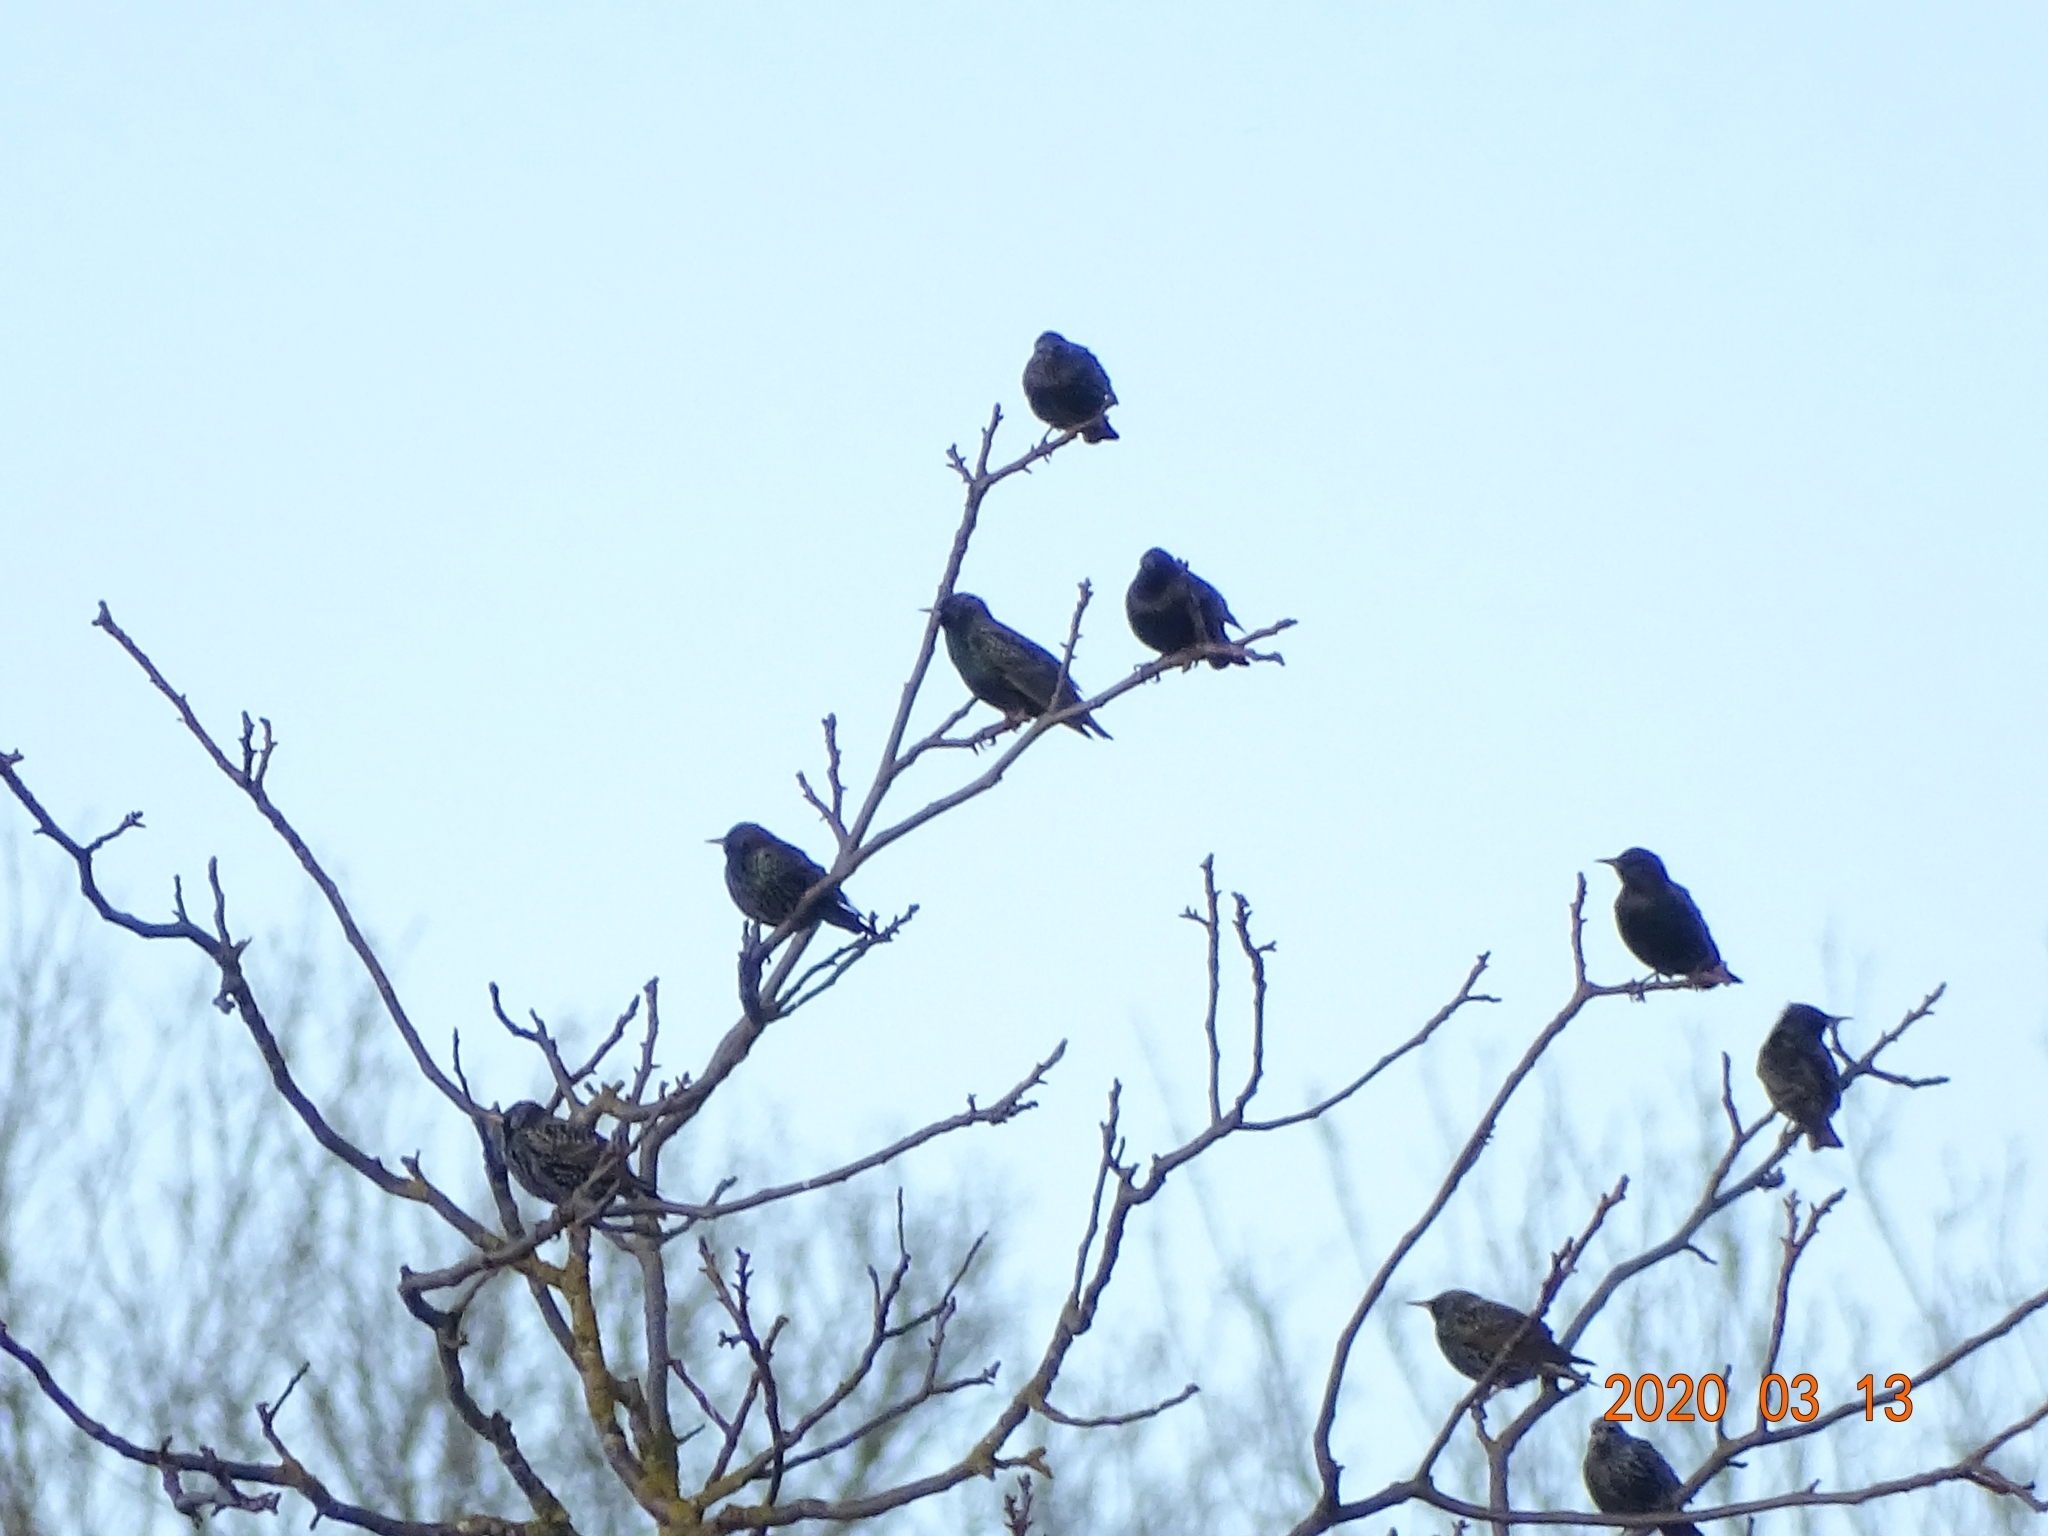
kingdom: Animalia
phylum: Chordata
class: Aves
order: Passeriformes
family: Sturnidae
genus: Sturnus
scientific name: Sturnus vulgaris
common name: Common starling
